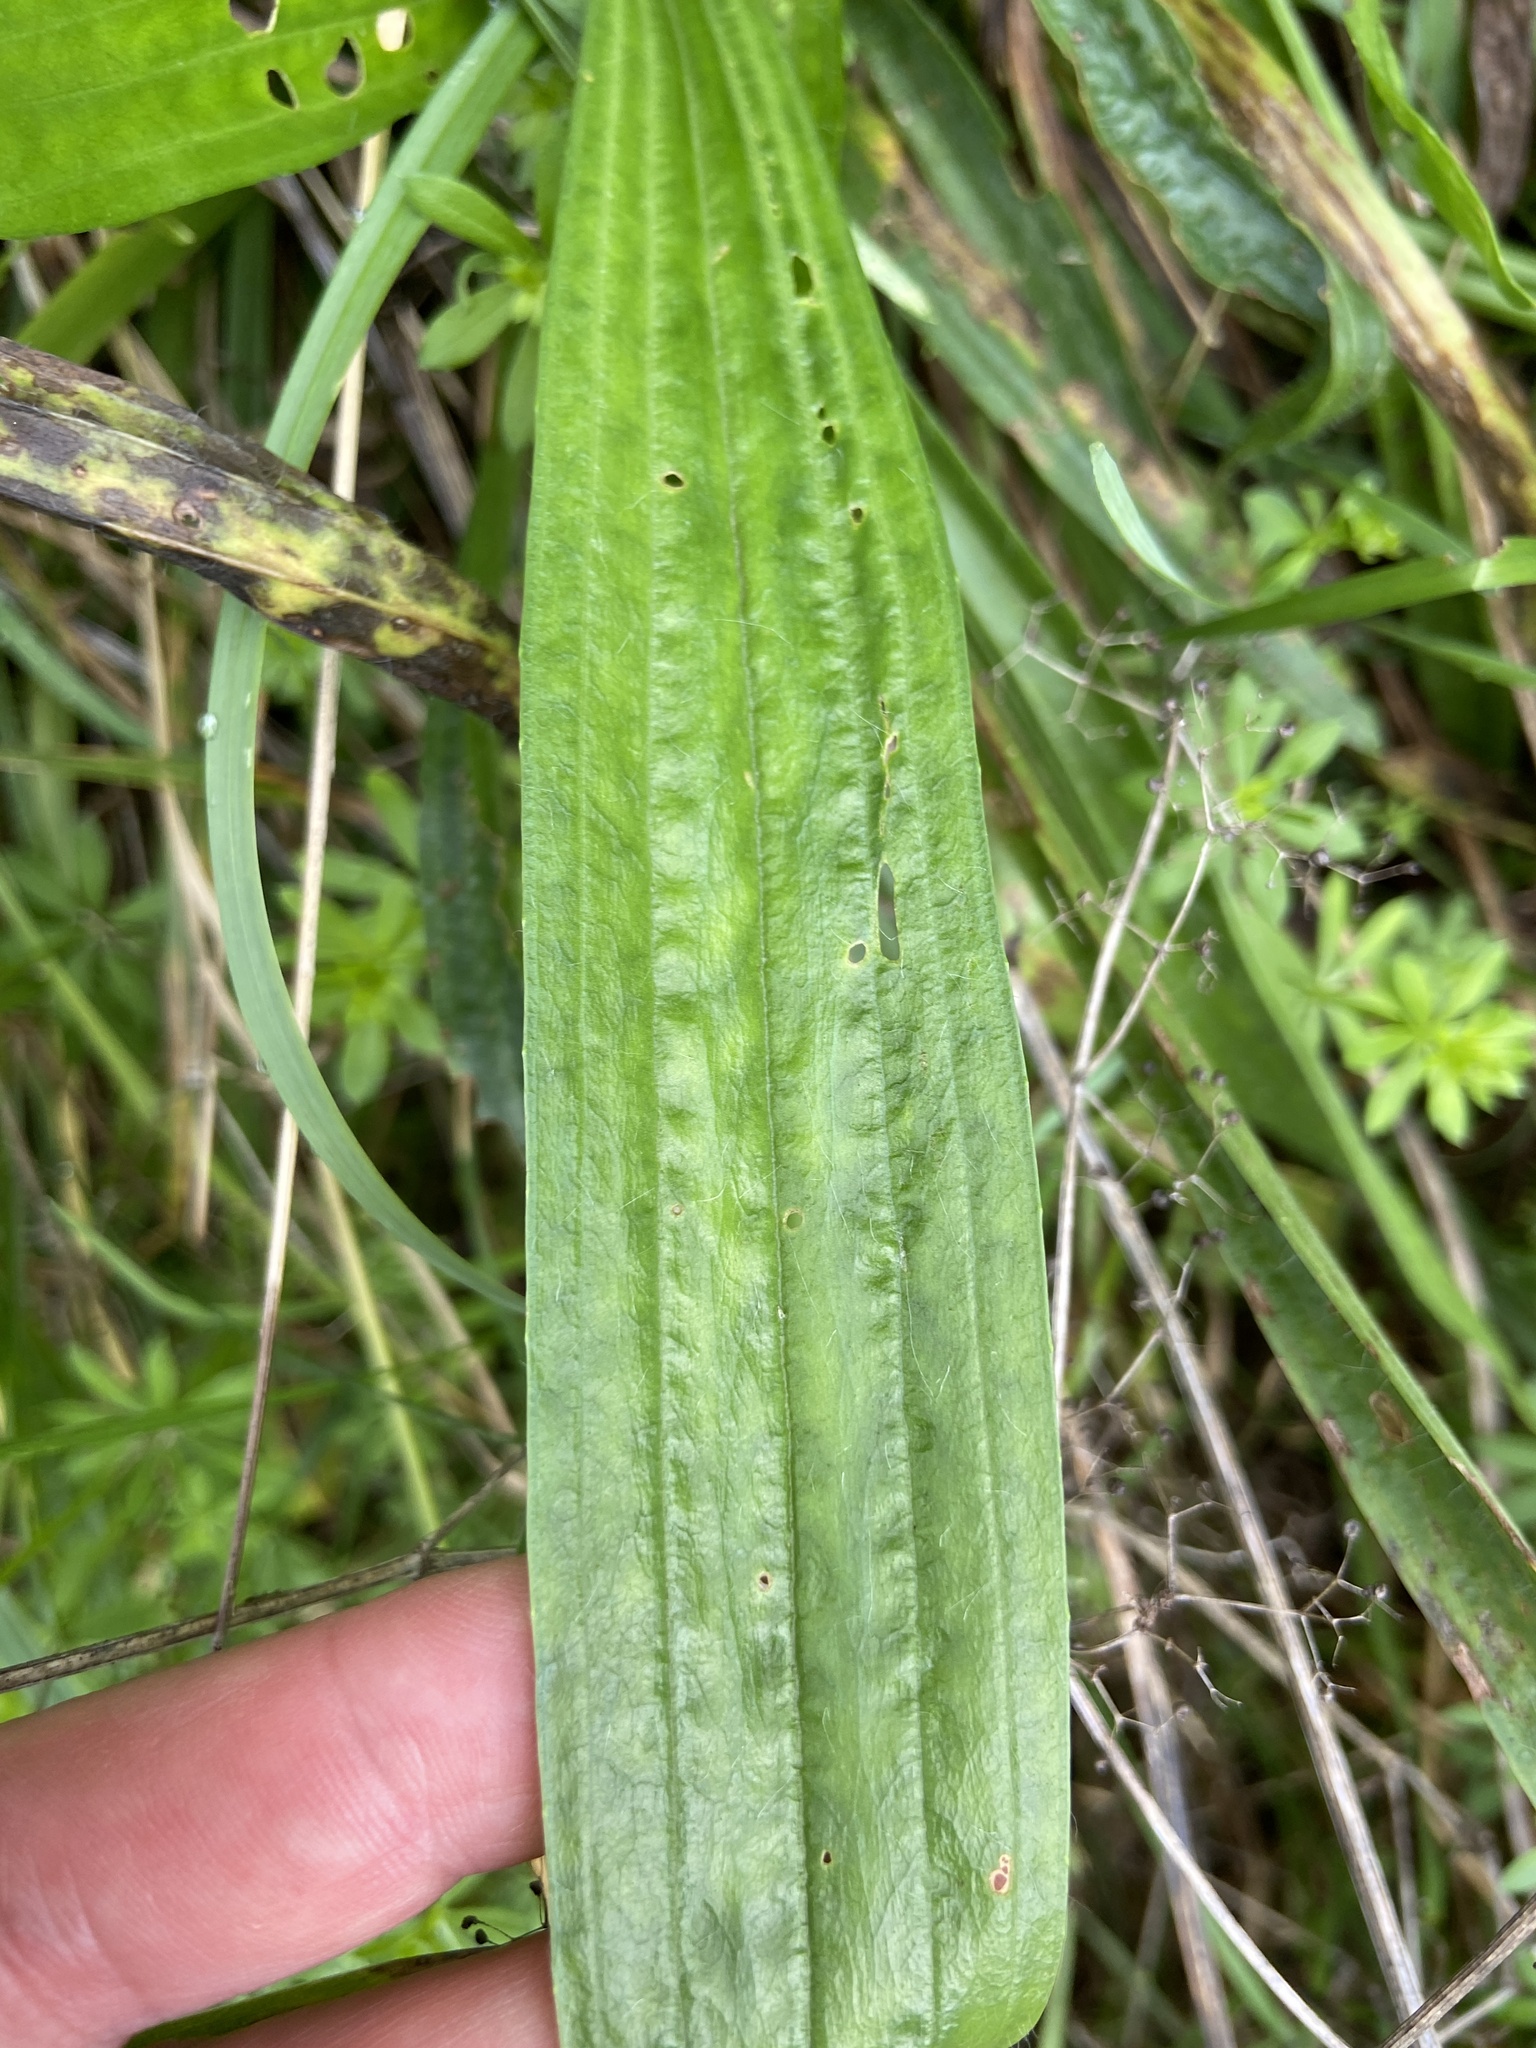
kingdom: Plantae
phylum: Tracheophyta
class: Magnoliopsida
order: Lamiales
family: Plantaginaceae
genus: Plantago
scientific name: Plantago lanceolata
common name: Ribwort plantain
